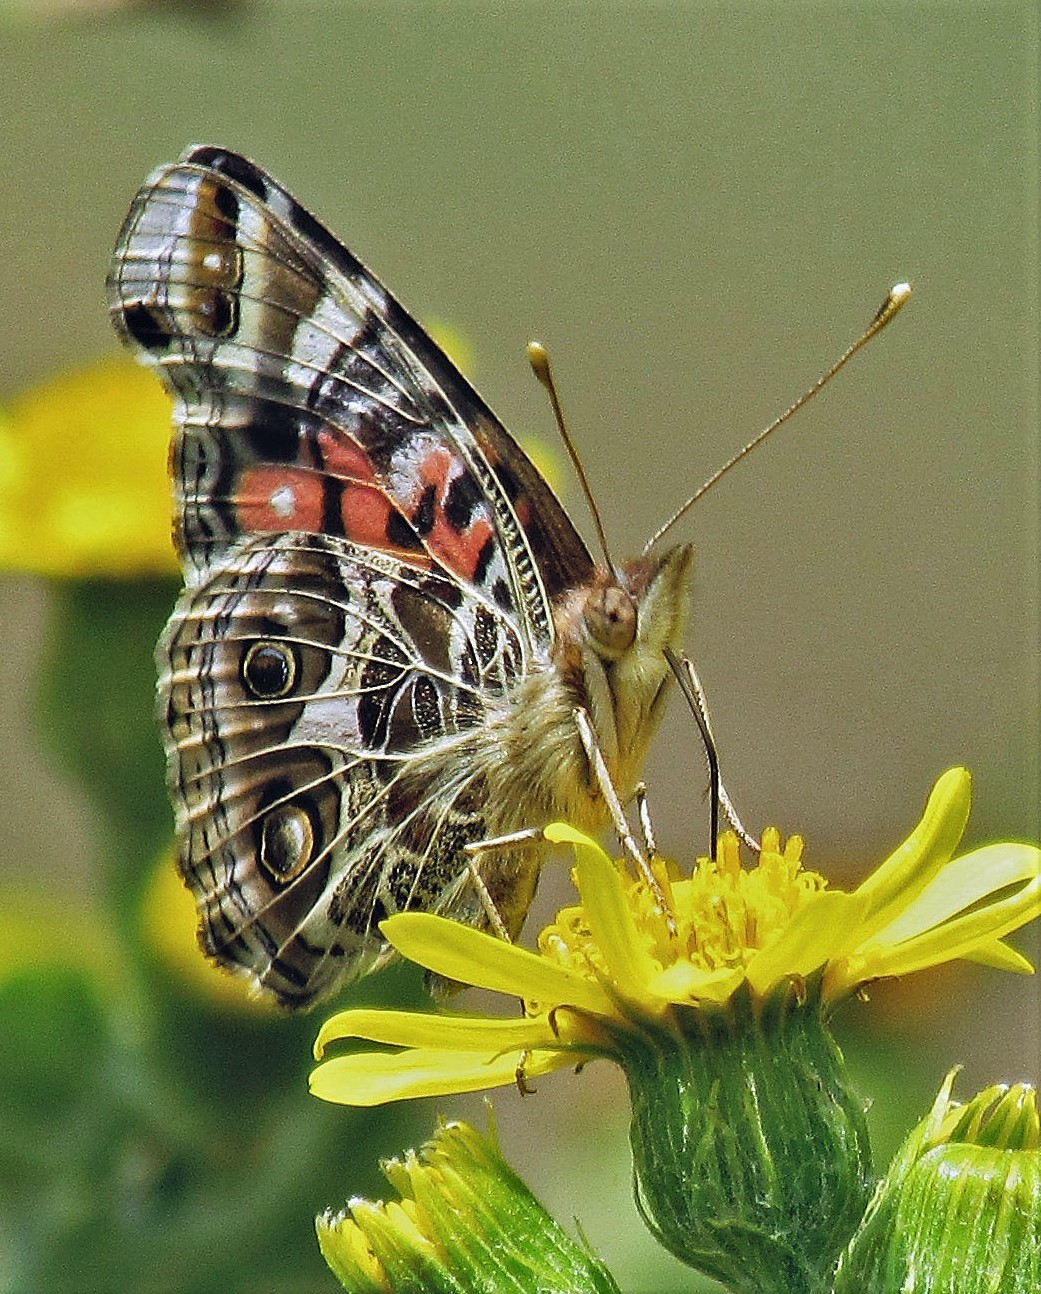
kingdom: Animalia
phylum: Arthropoda
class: Insecta
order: Lepidoptera
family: Nymphalidae
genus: Vanessa
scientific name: Vanessa braziliensis
